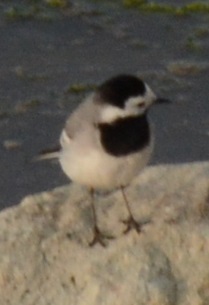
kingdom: Animalia
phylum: Chordata
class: Aves
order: Passeriformes
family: Motacillidae
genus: Motacilla
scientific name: Motacilla alba
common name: White wagtail
